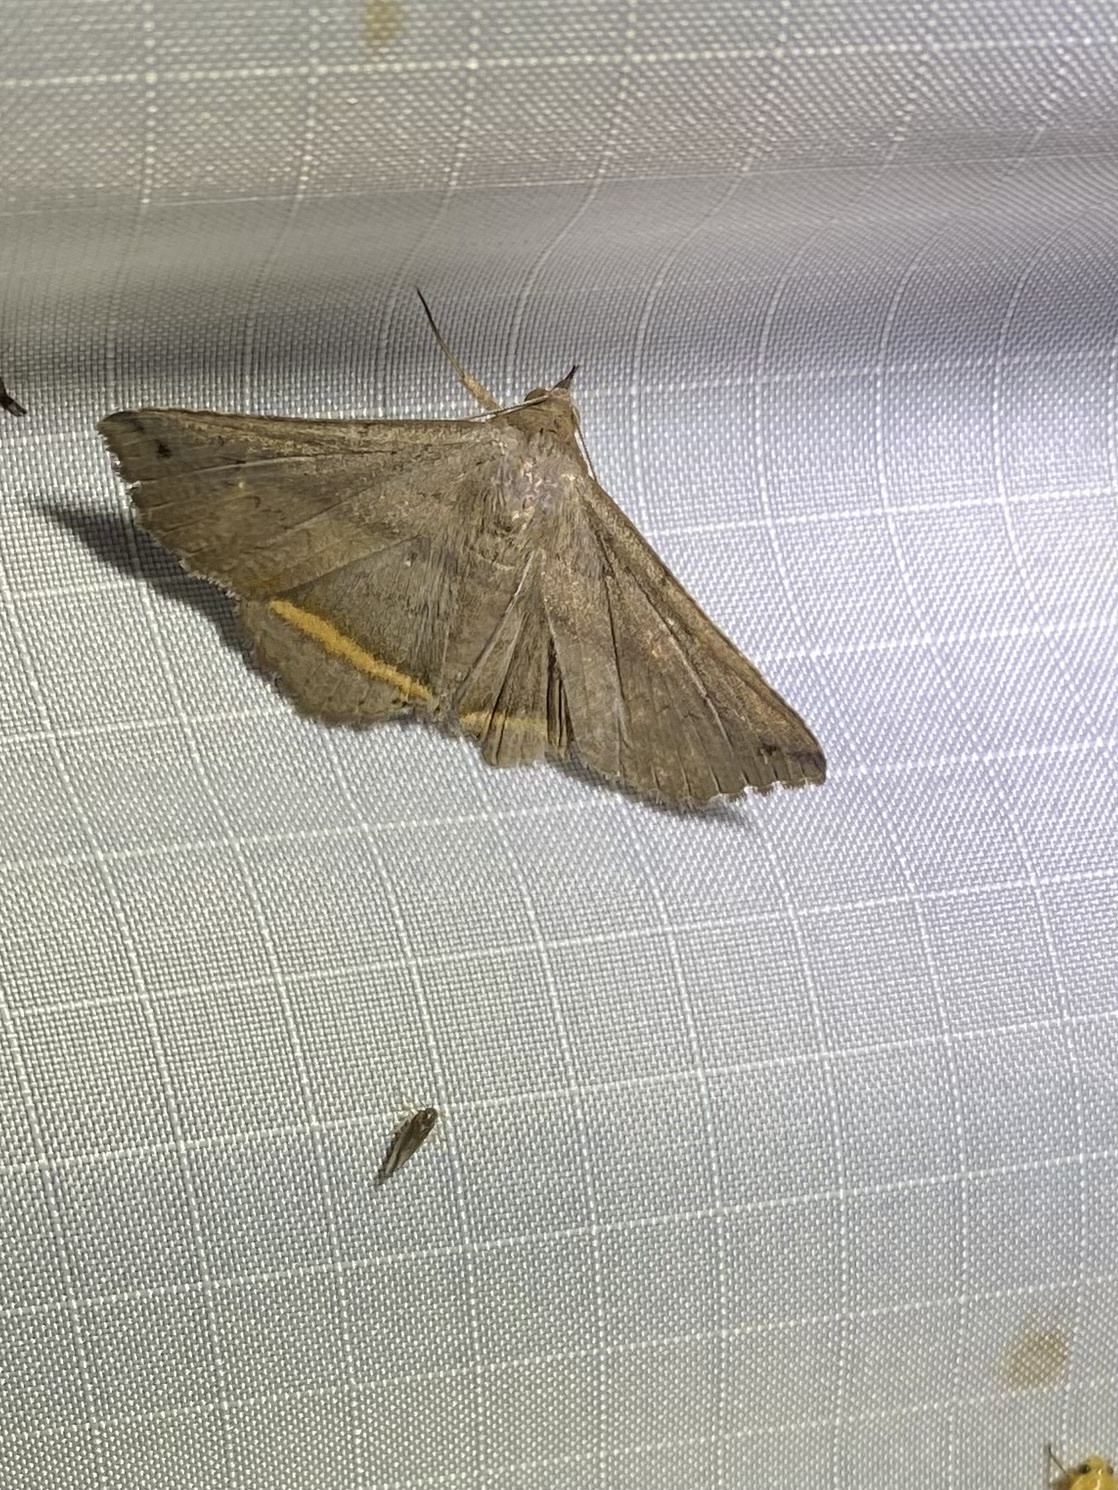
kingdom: Animalia
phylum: Arthropoda
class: Insecta
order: Lepidoptera
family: Erebidae
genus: Lesmone
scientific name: Lesmone formularis
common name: Lesmone moth
